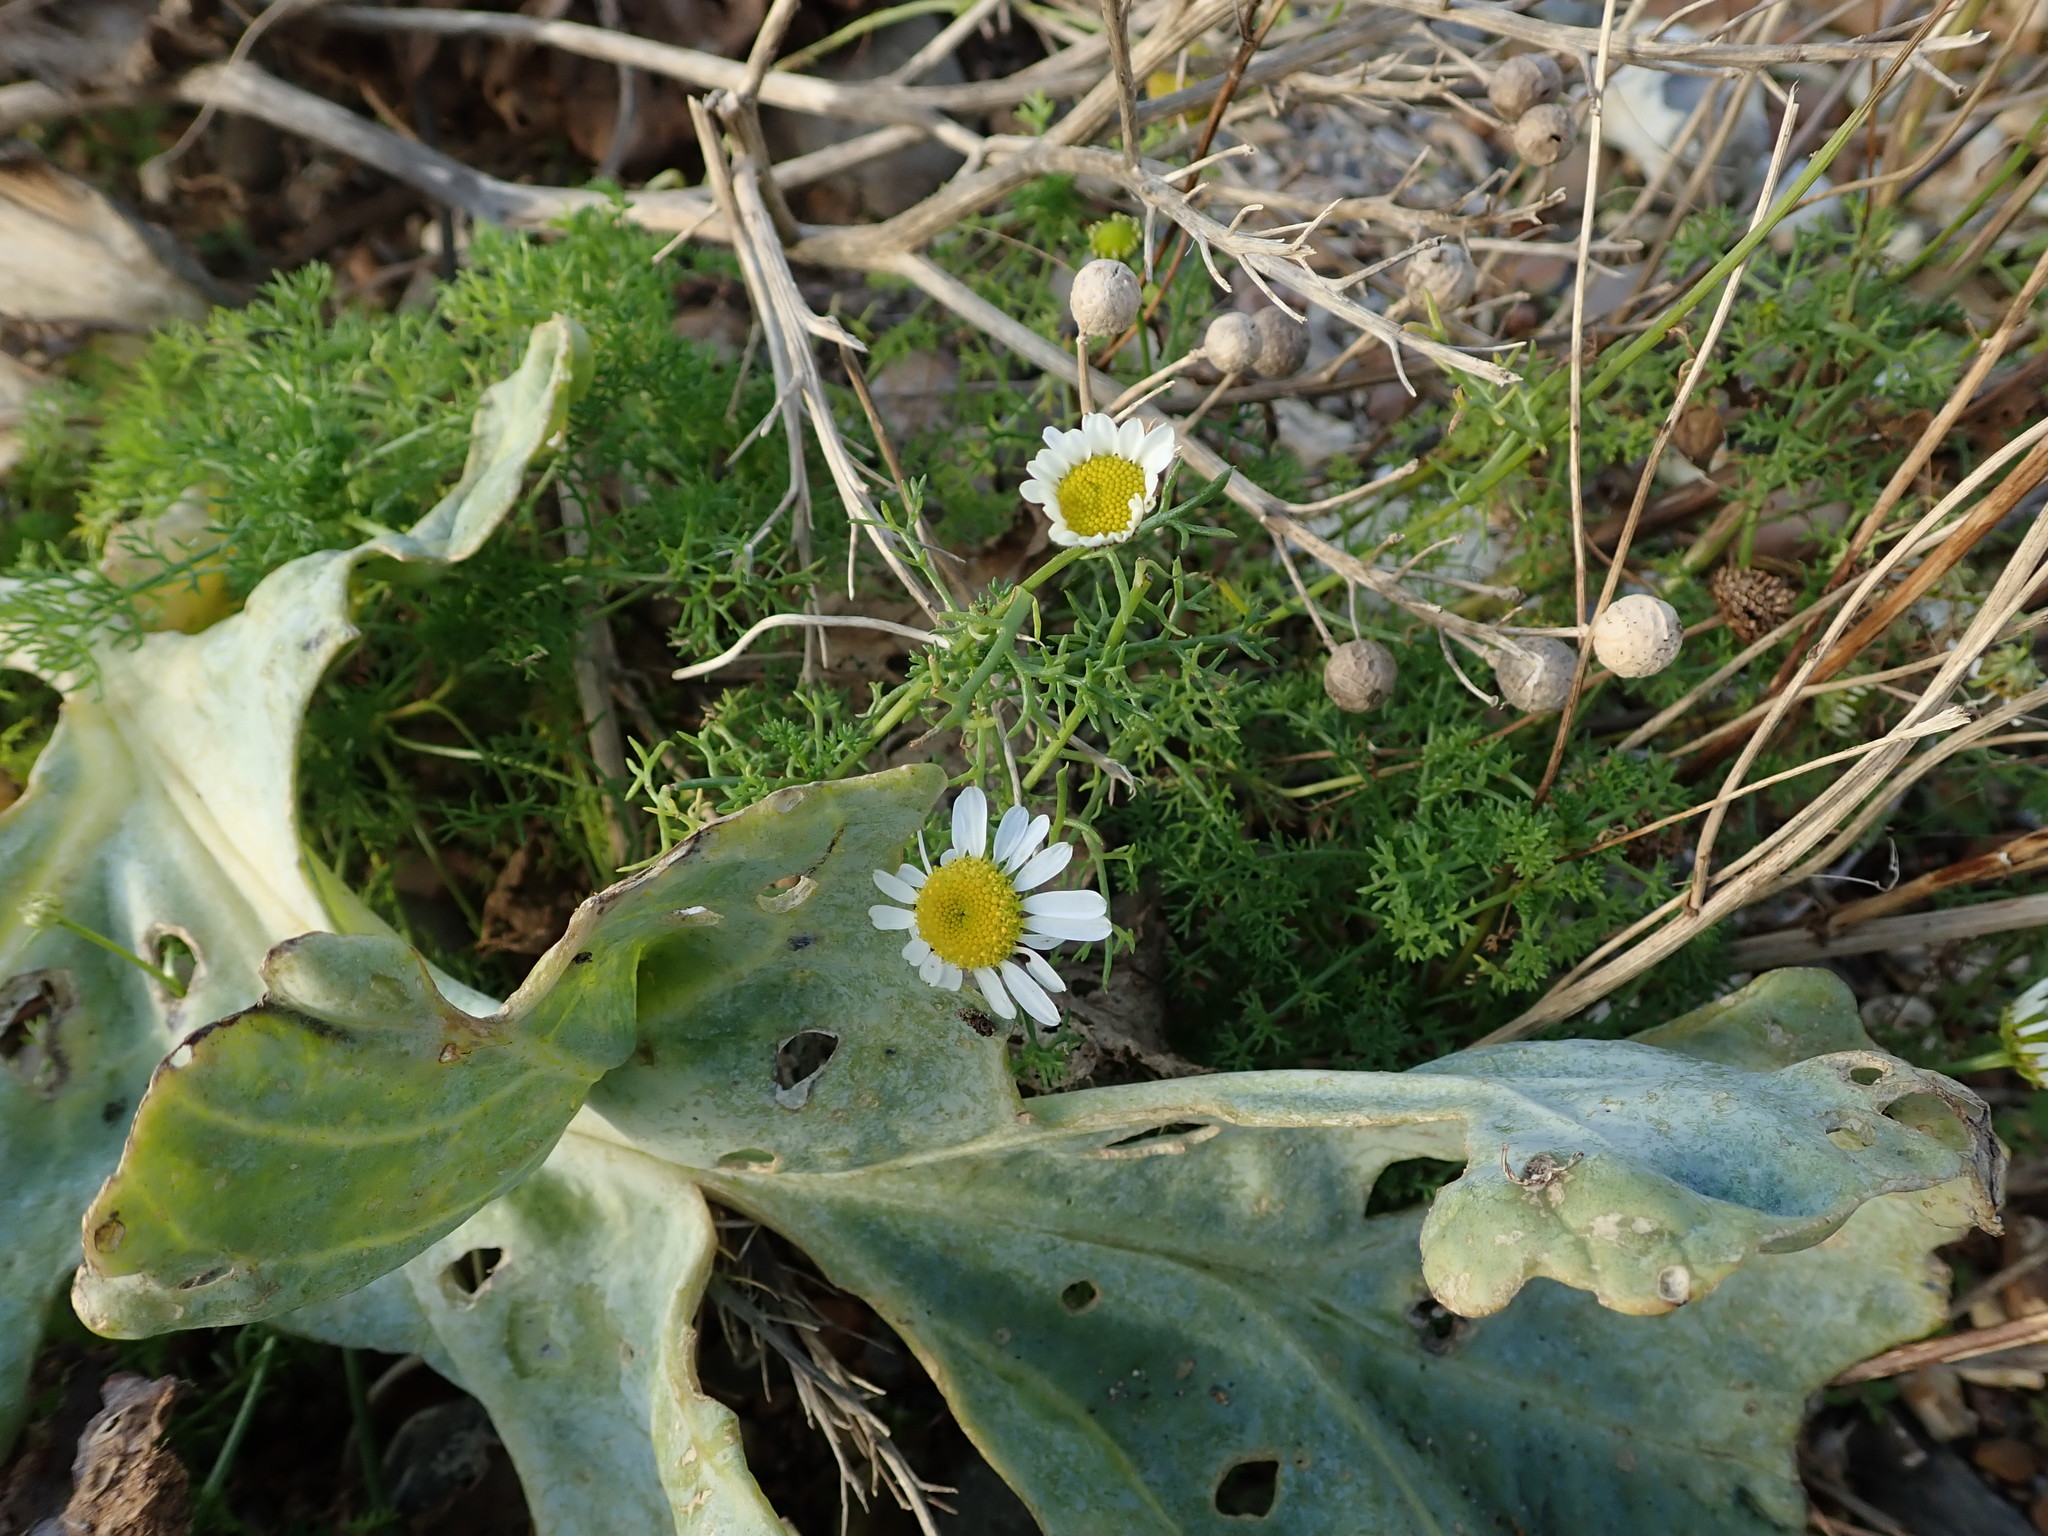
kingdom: Plantae
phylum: Tracheophyta
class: Magnoliopsida
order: Asterales
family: Asteraceae
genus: Tripleurospermum
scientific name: Tripleurospermum maritimum
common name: Sea mayweed
